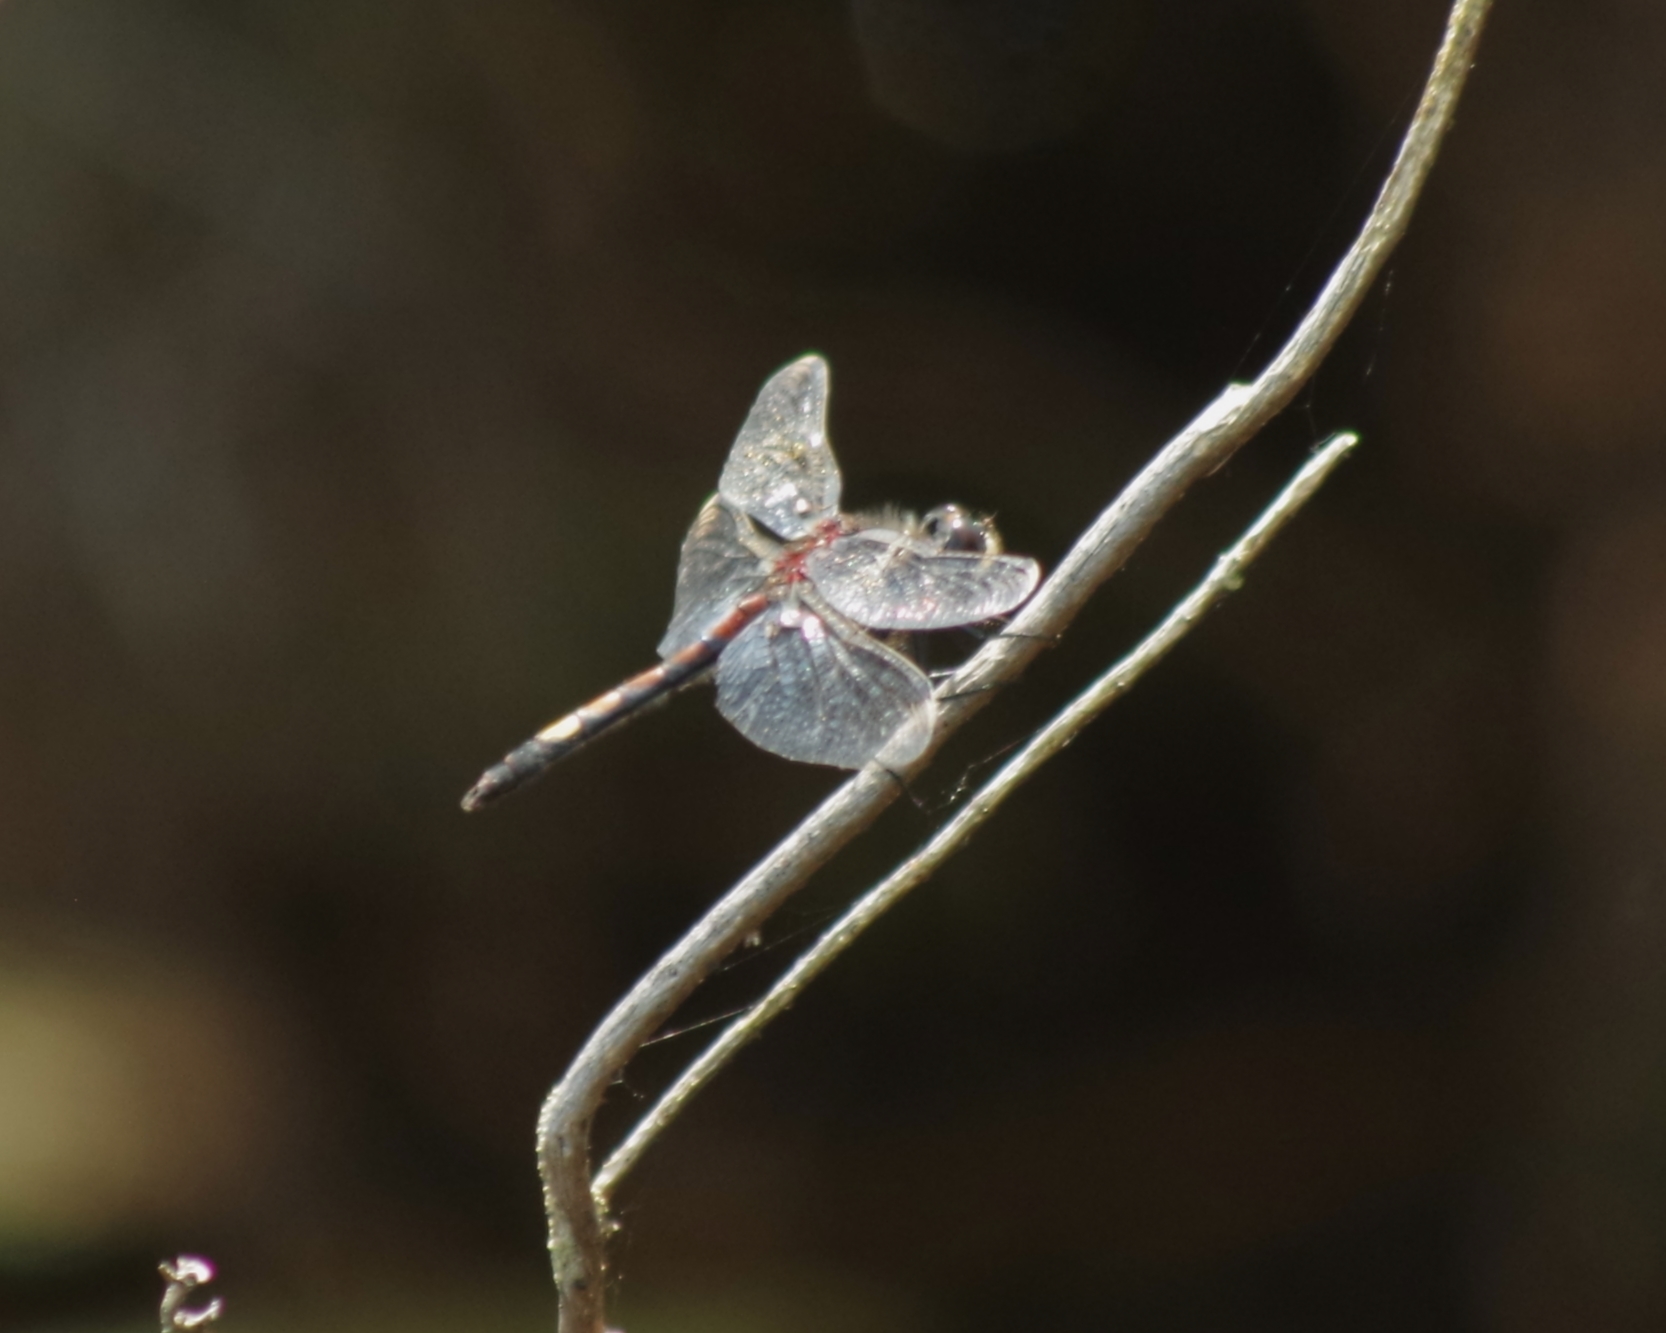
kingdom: Animalia
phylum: Arthropoda
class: Insecta
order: Odonata
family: Libellulidae
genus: Leucorrhinia
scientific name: Leucorrhinia pectoralis
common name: Yellow-spotted whiteface
